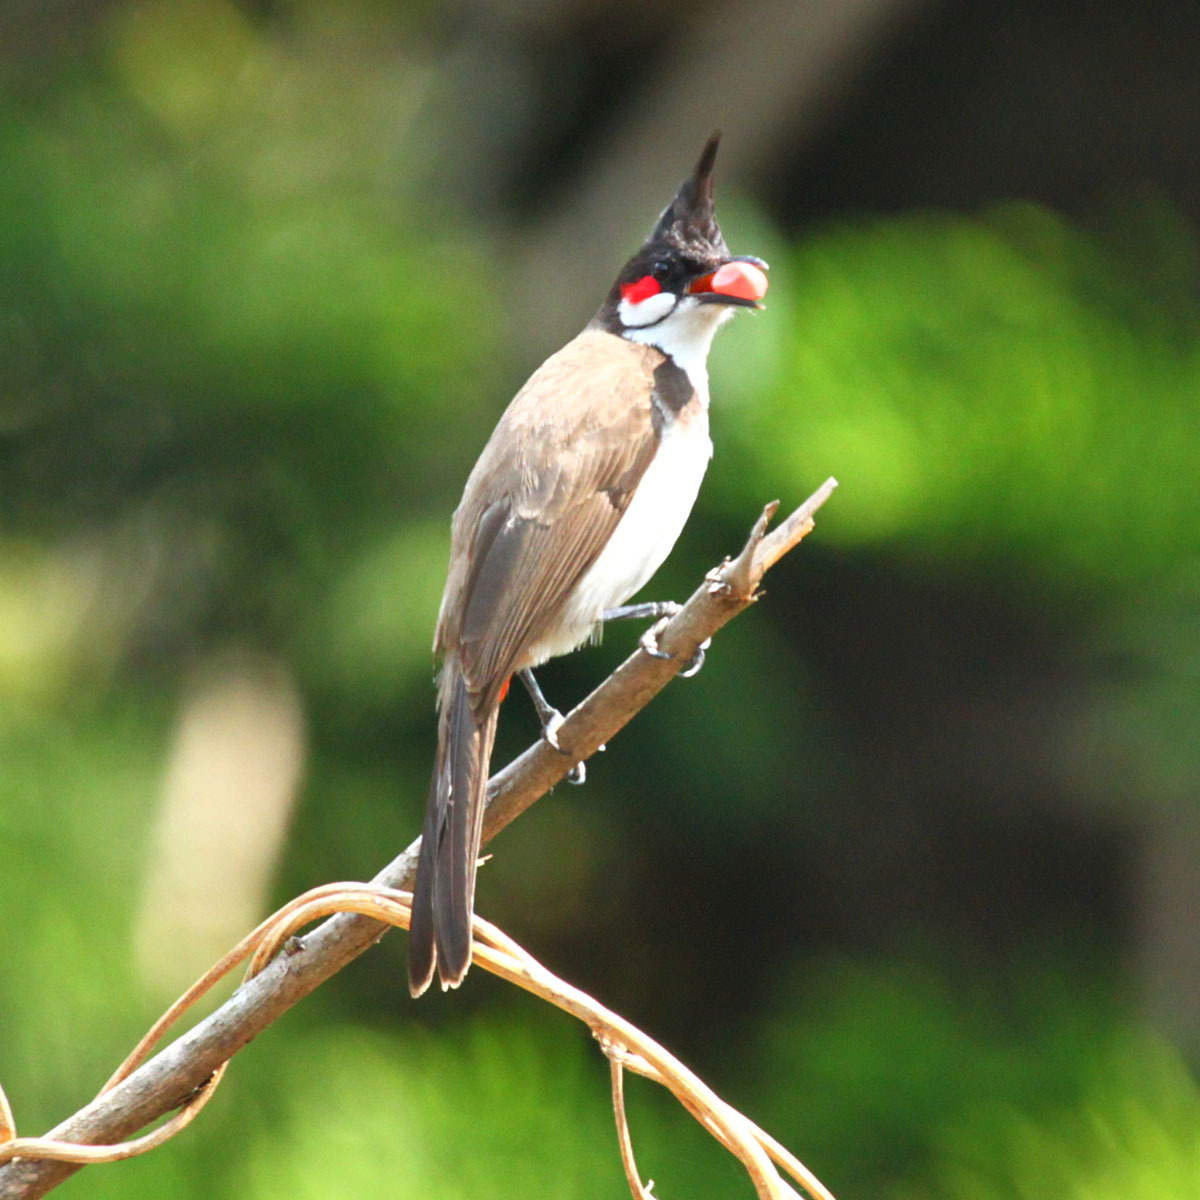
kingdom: Animalia
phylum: Chordata
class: Aves
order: Passeriformes
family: Pycnonotidae
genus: Pycnonotus
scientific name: Pycnonotus jocosus
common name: Red-whiskered bulbul
